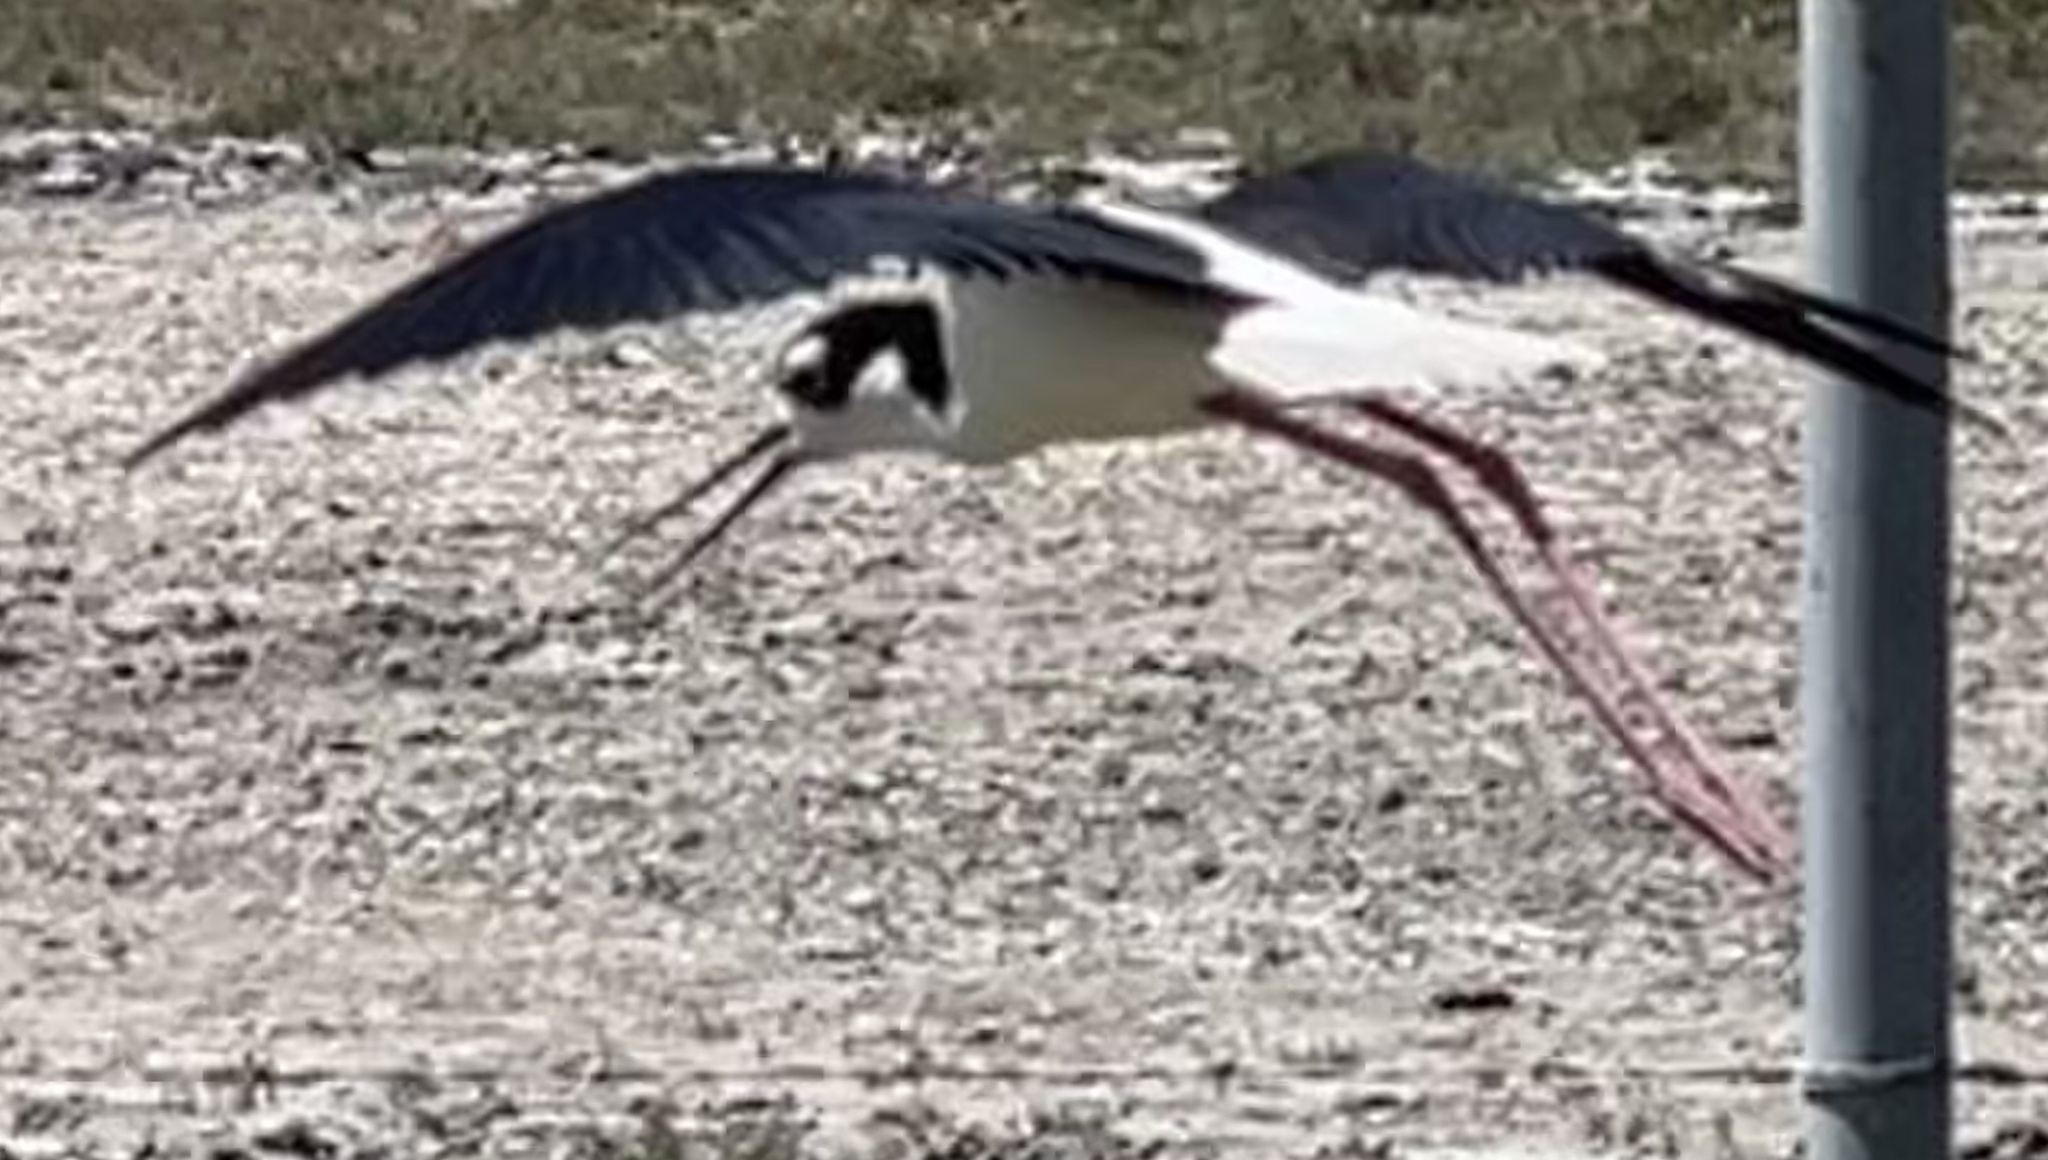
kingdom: Animalia
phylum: Chordata
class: Aves
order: Charadriiformes
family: Recurvirostridae
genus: Himantopus
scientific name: Himantopus mexicanus
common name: Black-necked stilt
